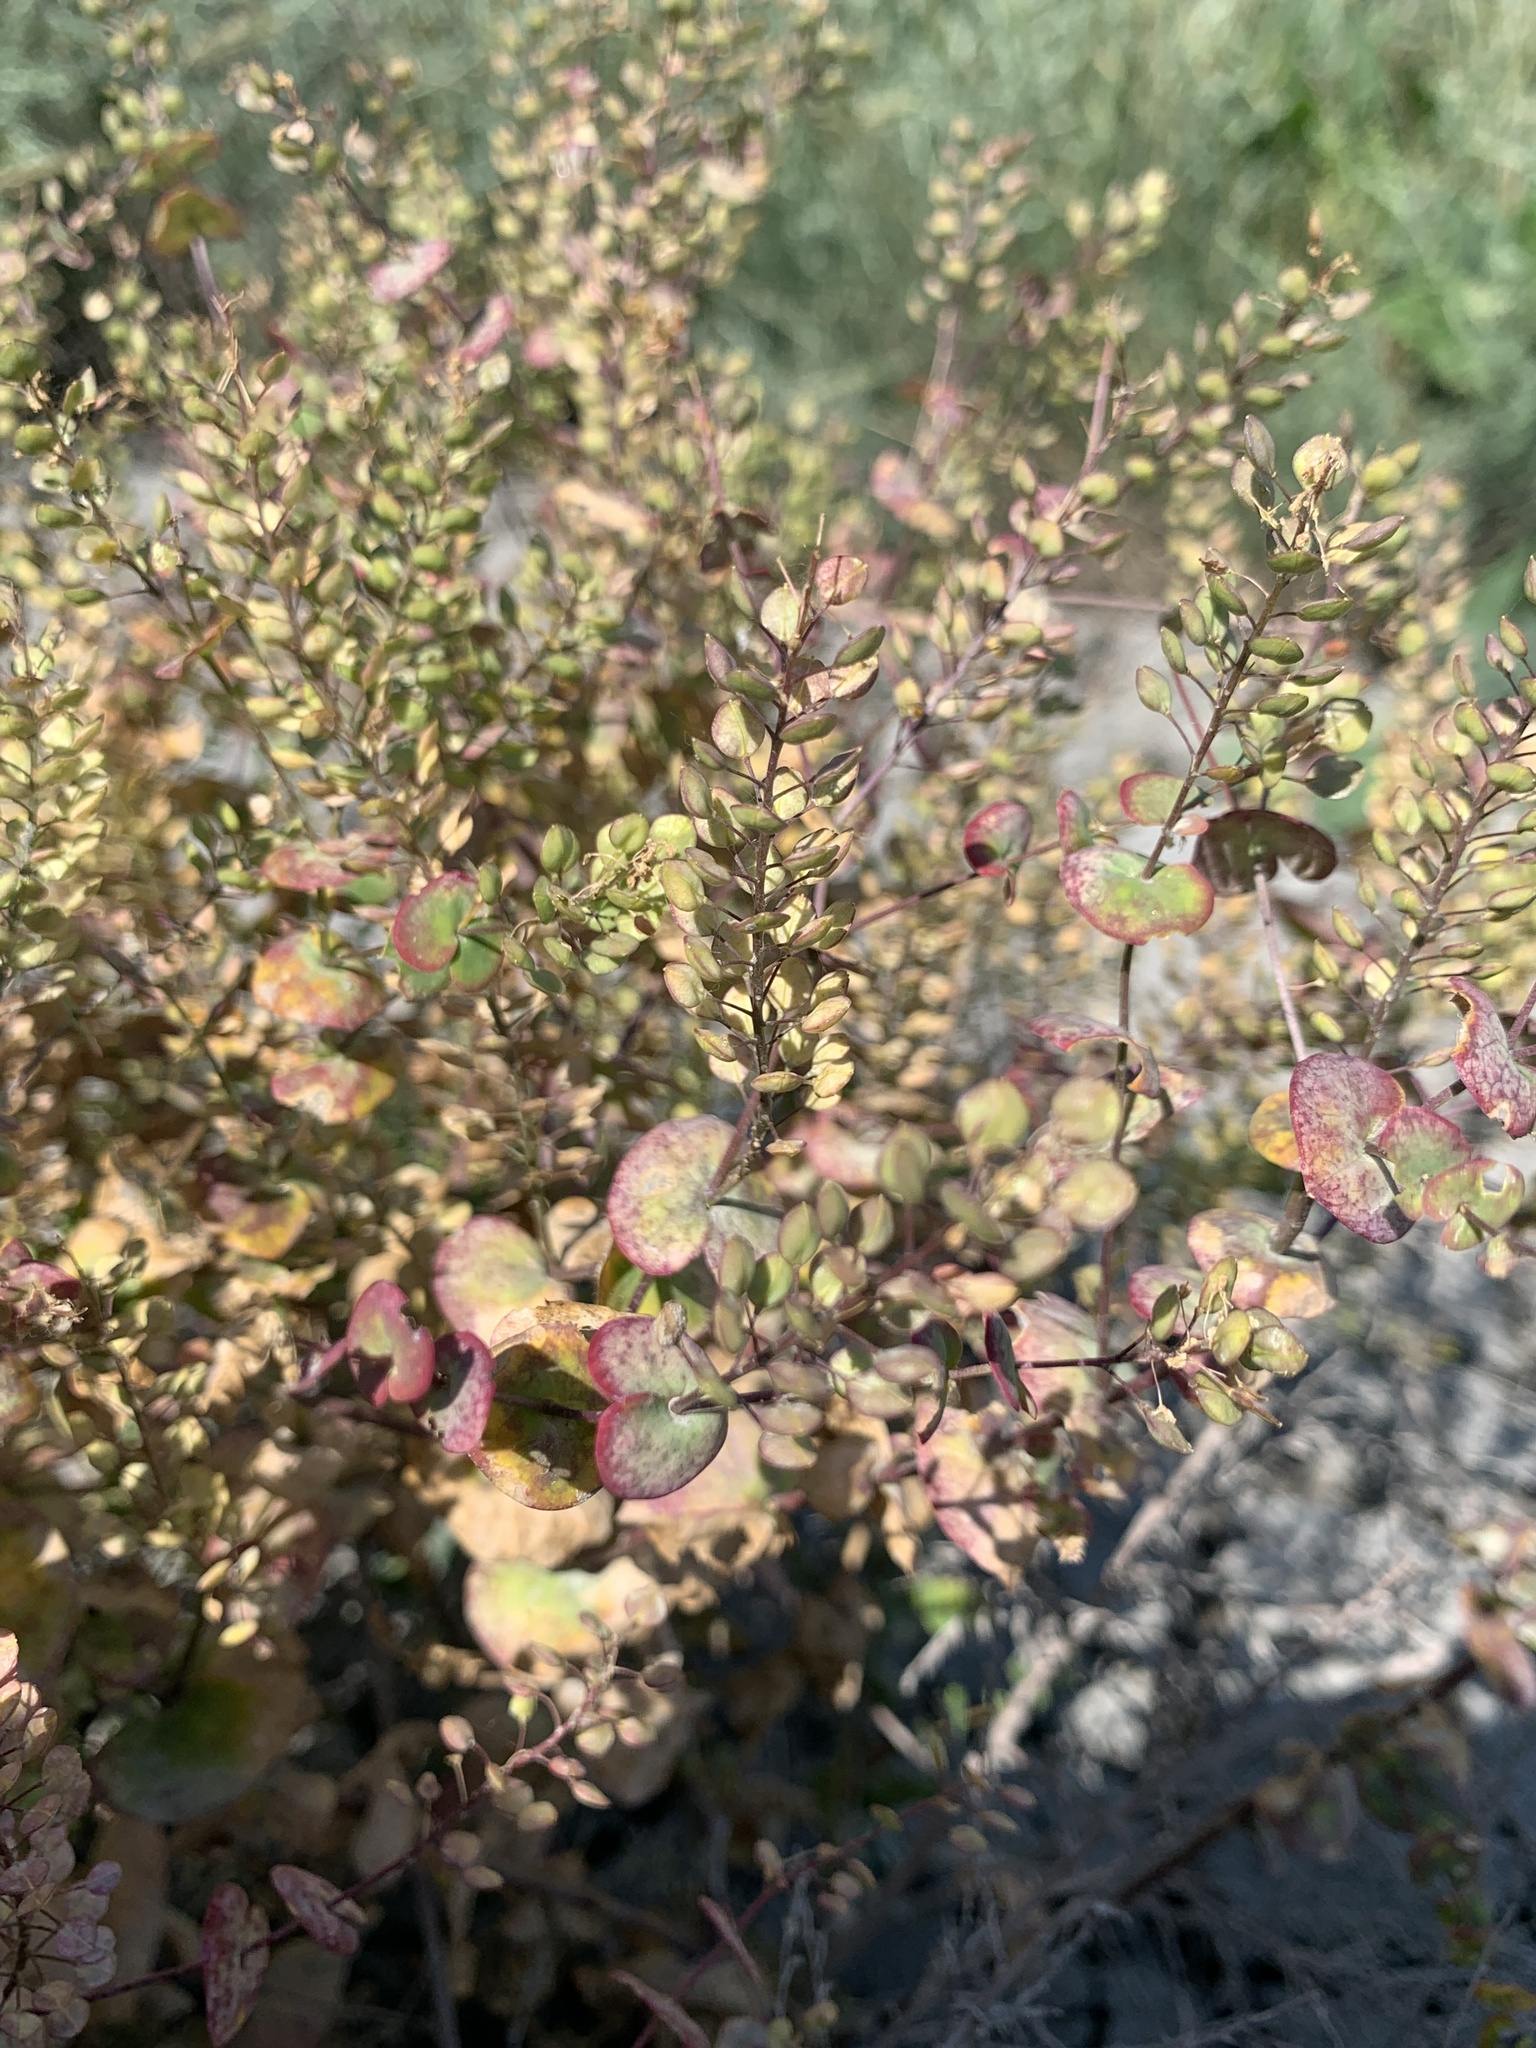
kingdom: Plantae
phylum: Tracheophyta
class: Magnoliopsida
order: Brassicales
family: Brassicaceae
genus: Lepidium
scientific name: Lepidium perfoliatum
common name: Perfoliate pepperwort
